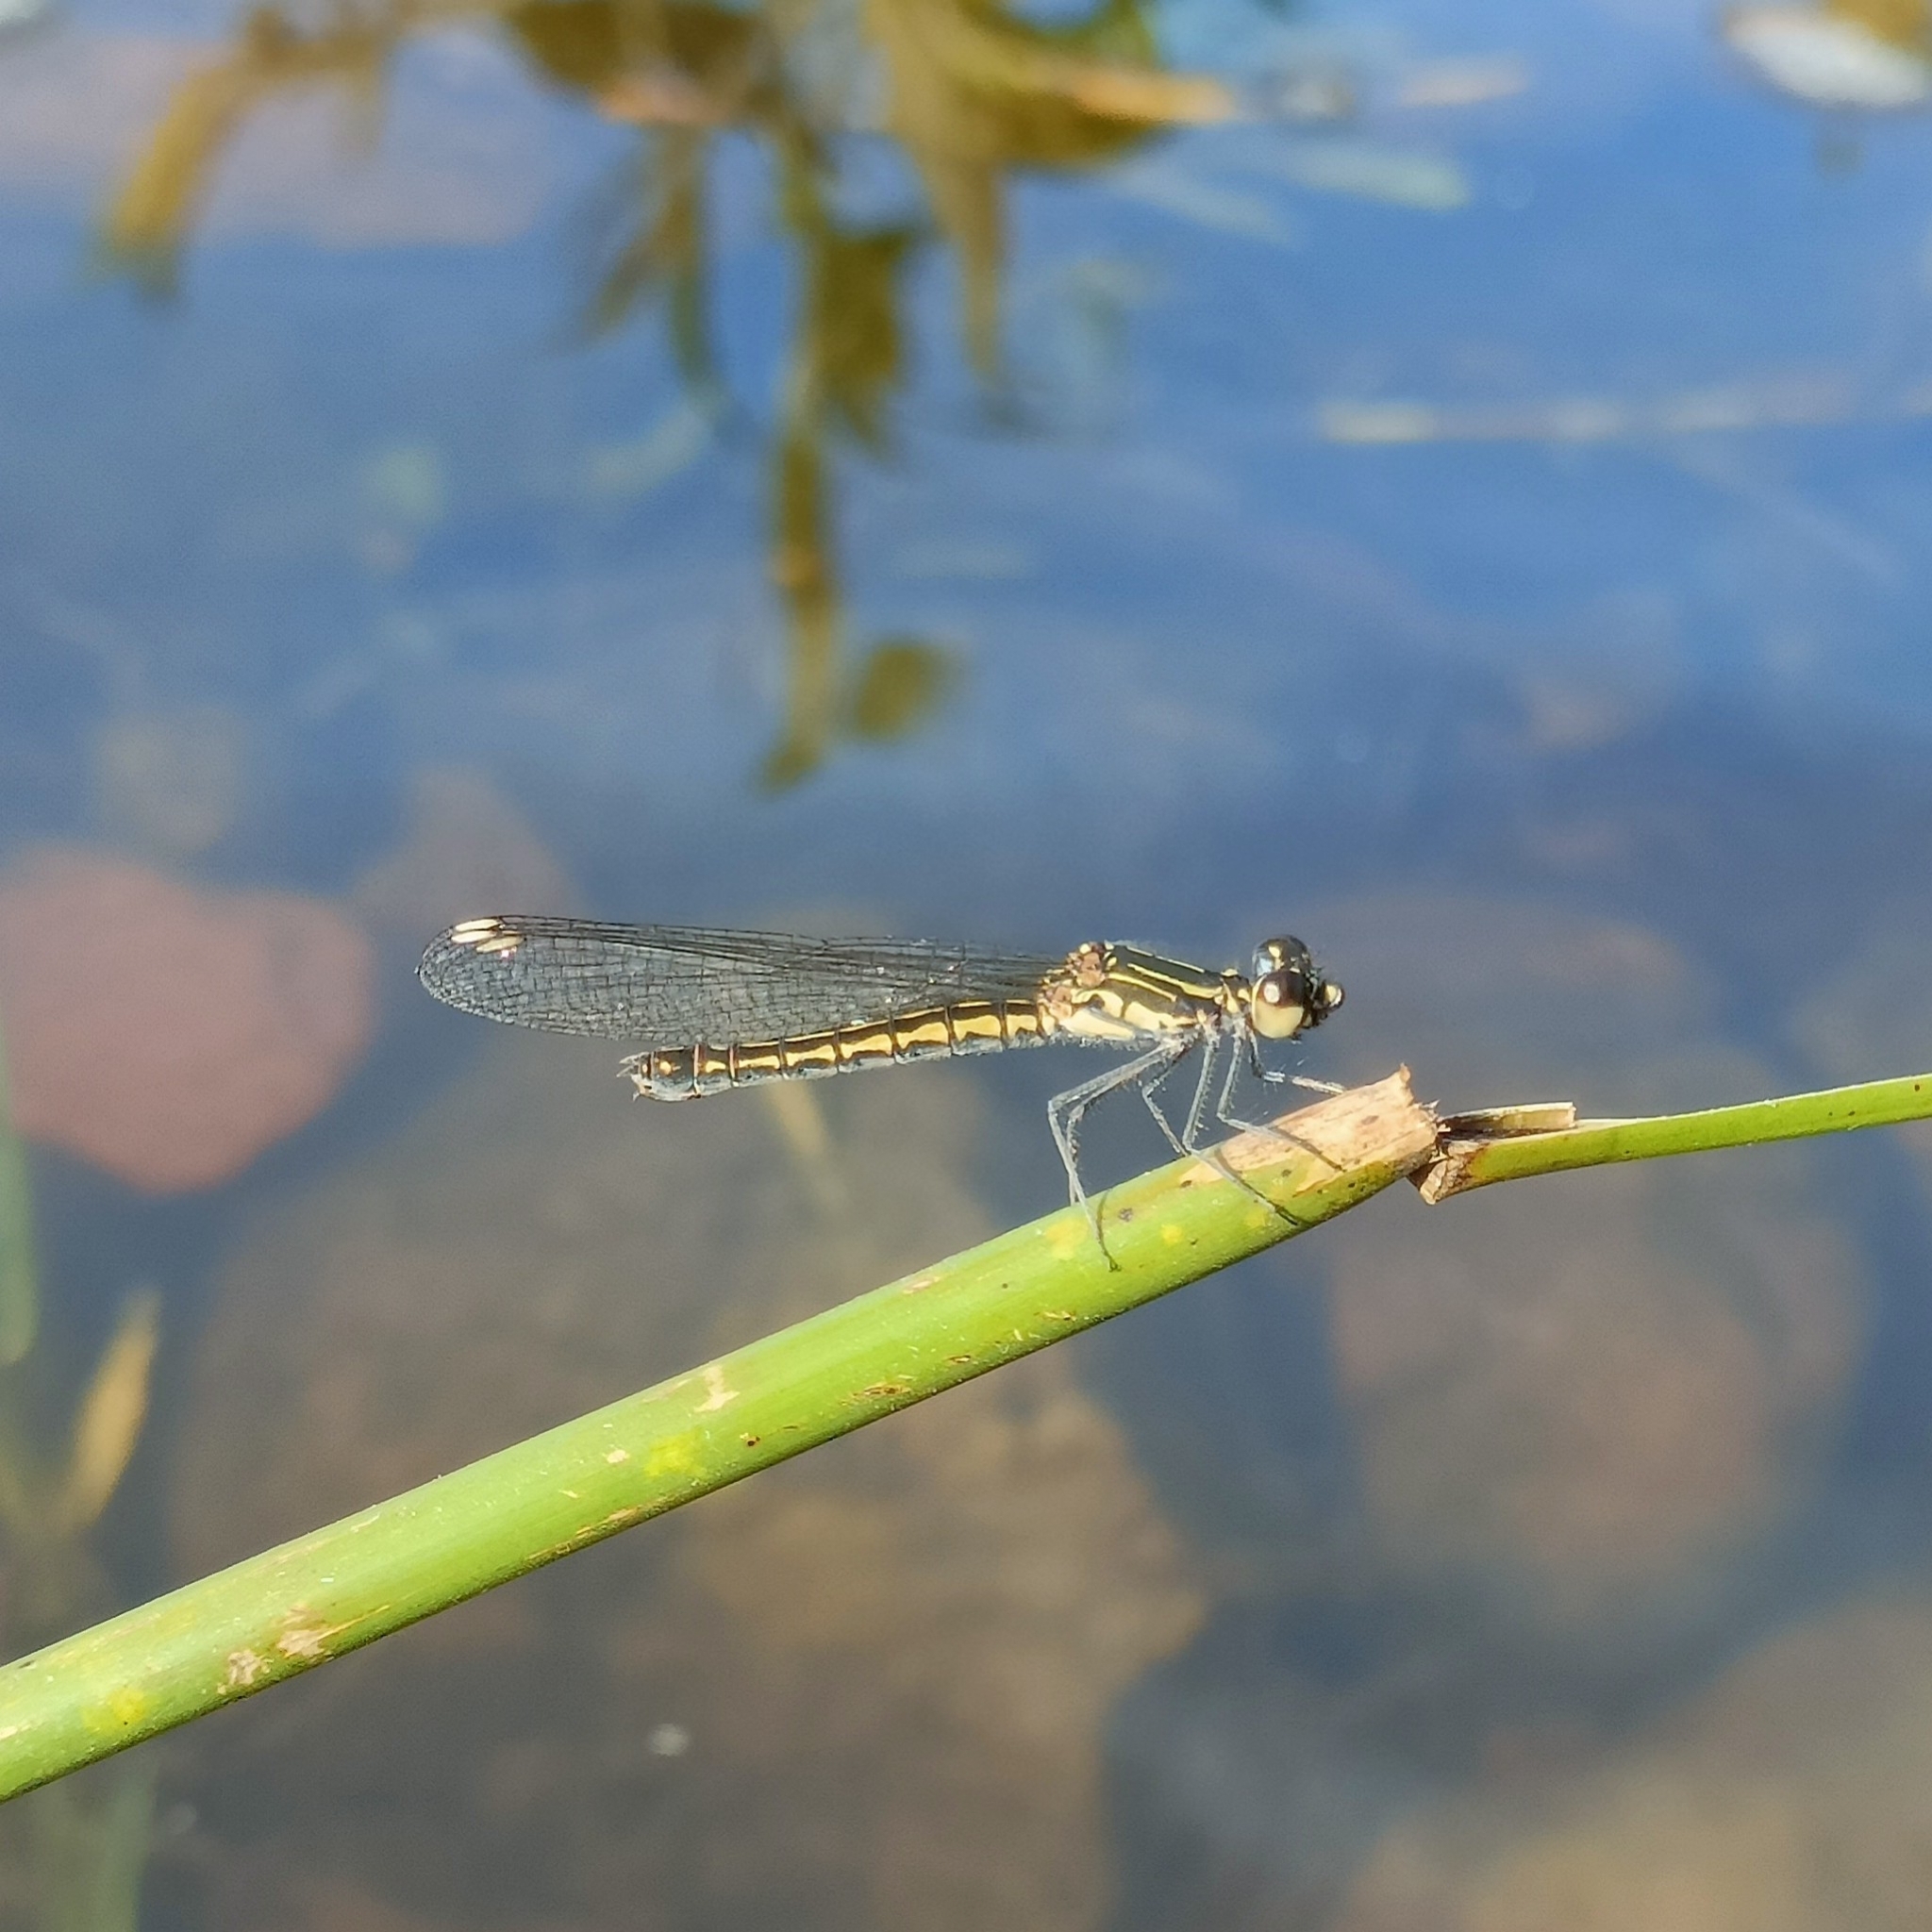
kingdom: Animalia
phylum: Arthropoda
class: Insecta
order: Odonata
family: Chlorocyphidae
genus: Libellago
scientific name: Libellago indica
